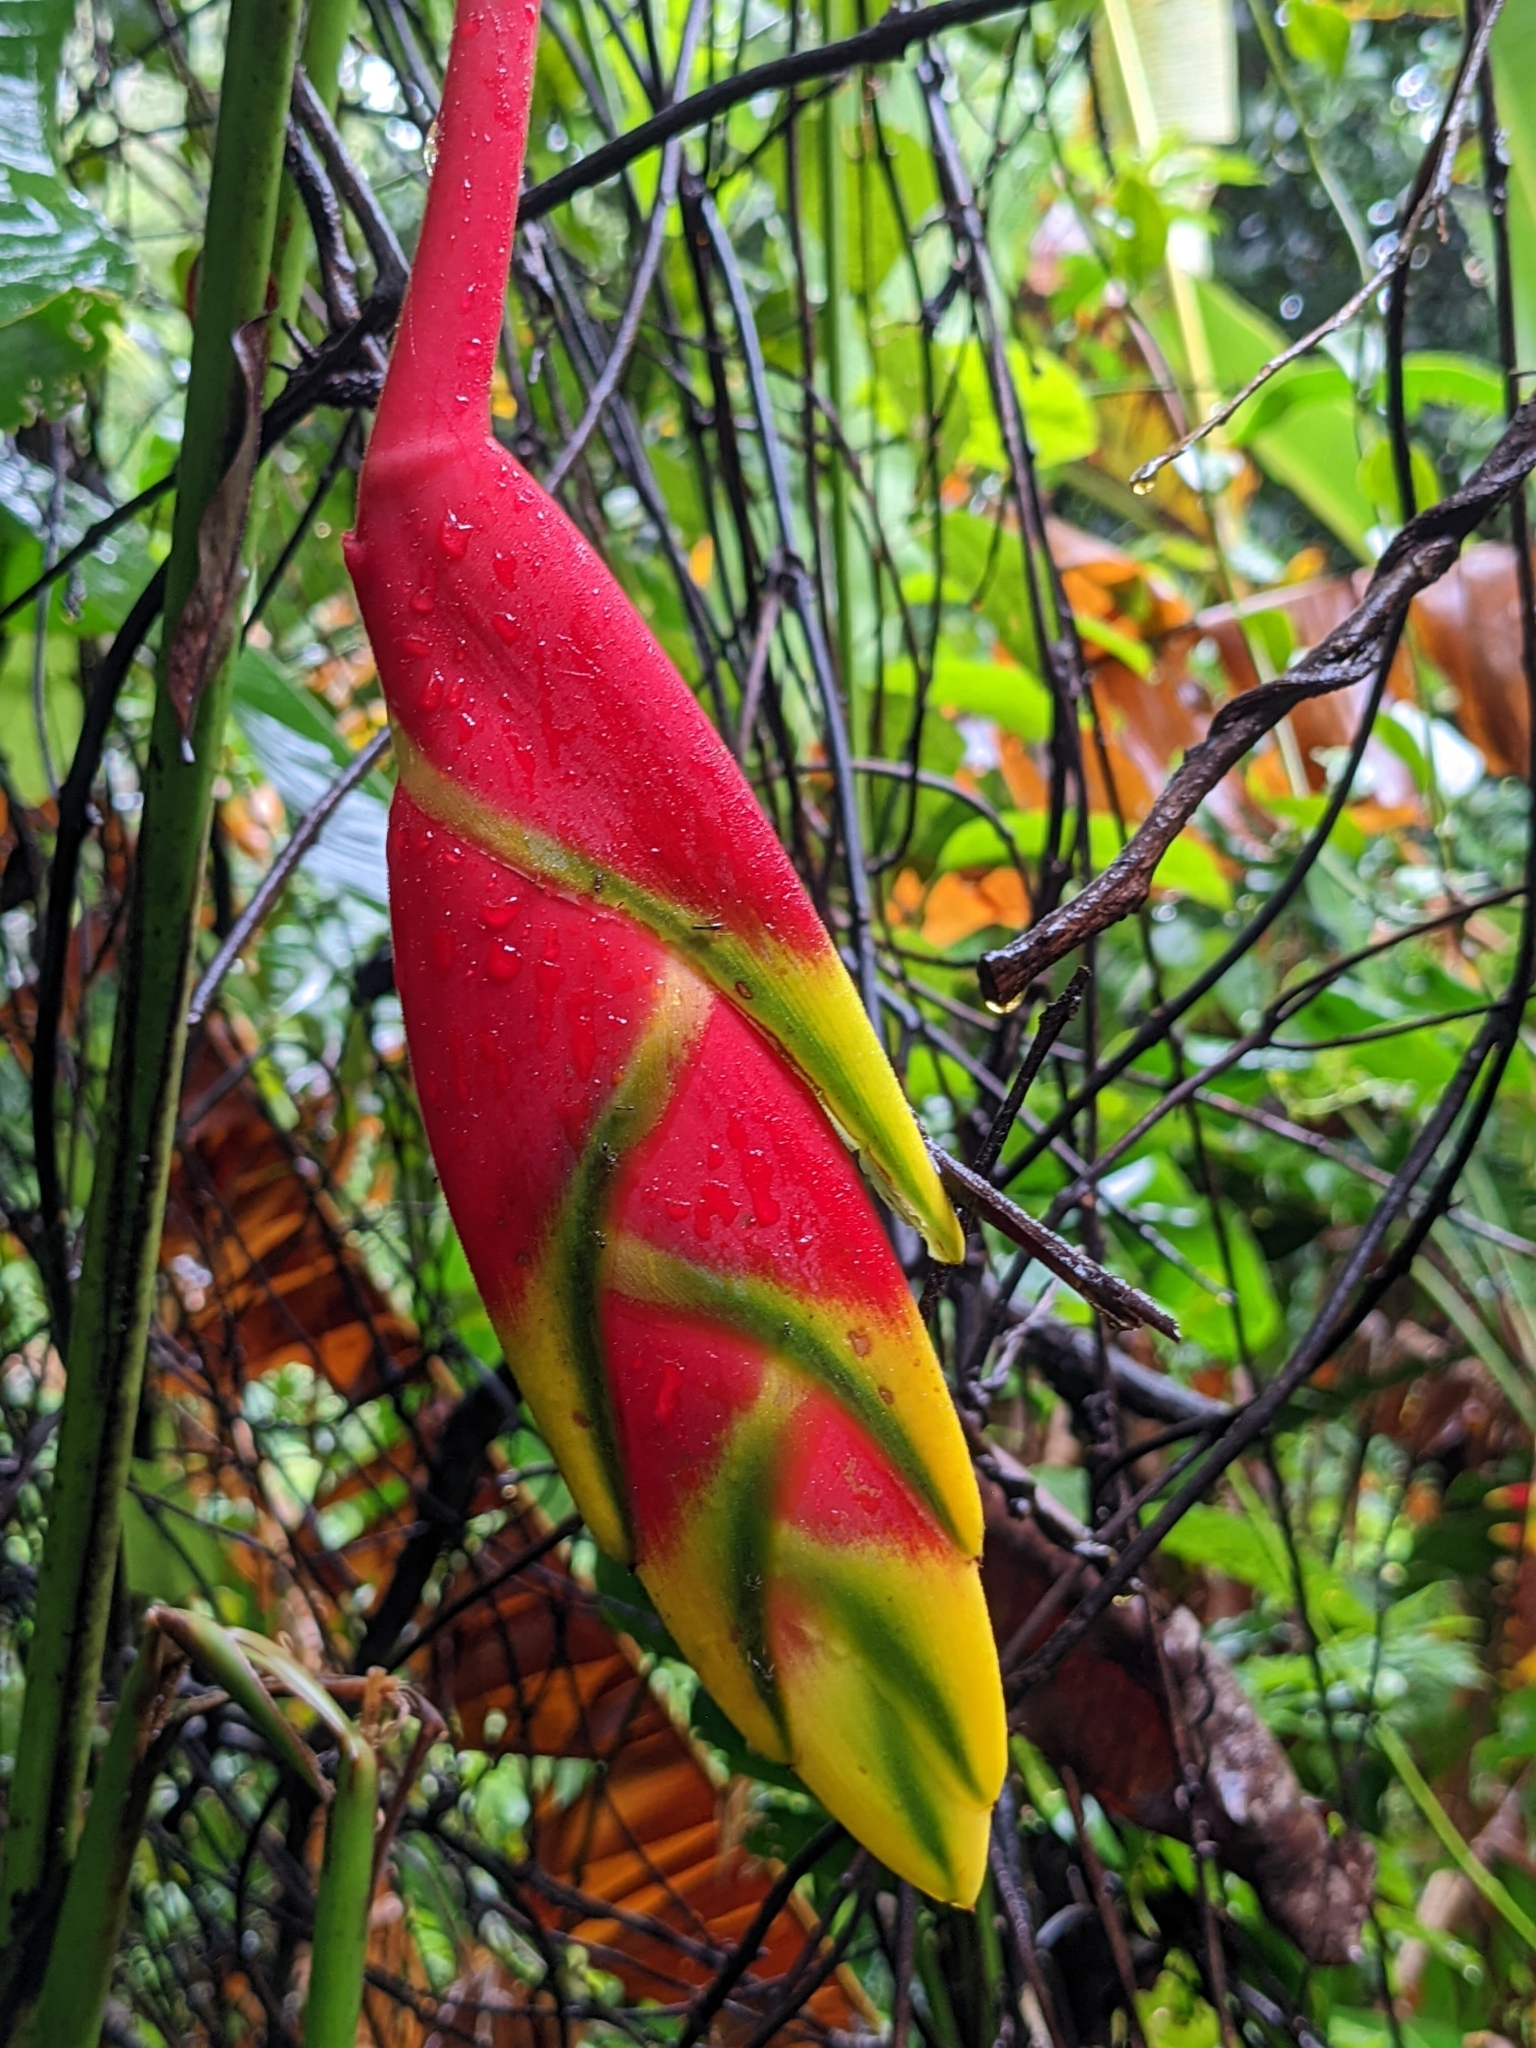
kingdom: Plantae
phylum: Tracheophyta
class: Liliopsida
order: Zingiberales
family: Heliconiaceae
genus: Heliconia
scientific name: Heliconia rostrata
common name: False bird of paradise
